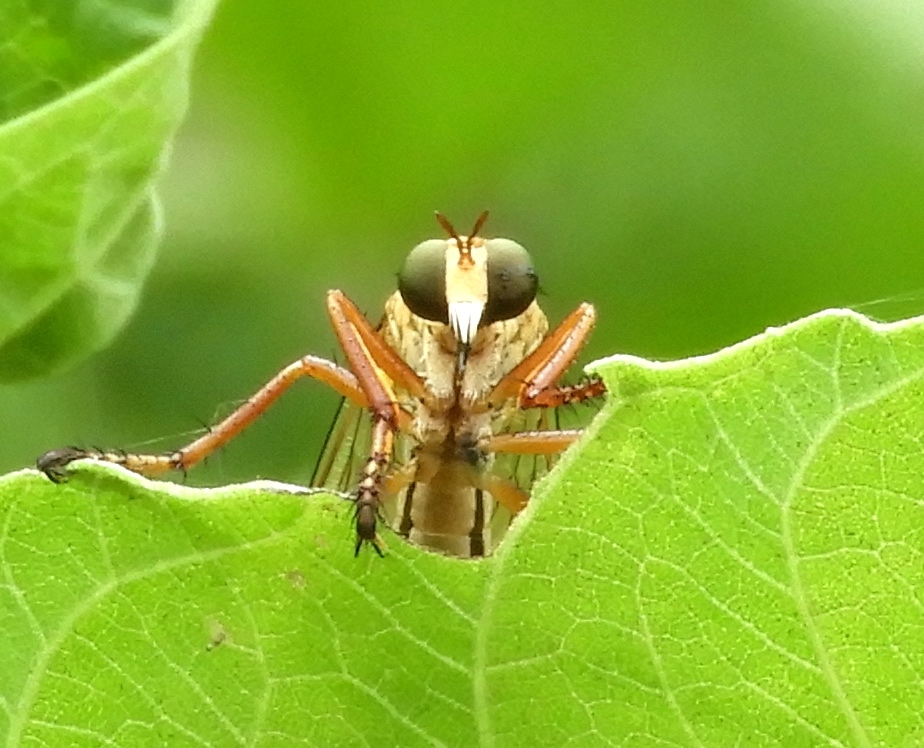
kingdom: Animalia
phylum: Arthropoda
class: Insecta
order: Diptera
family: Asilidae
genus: Diogmites
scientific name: Diogmites
